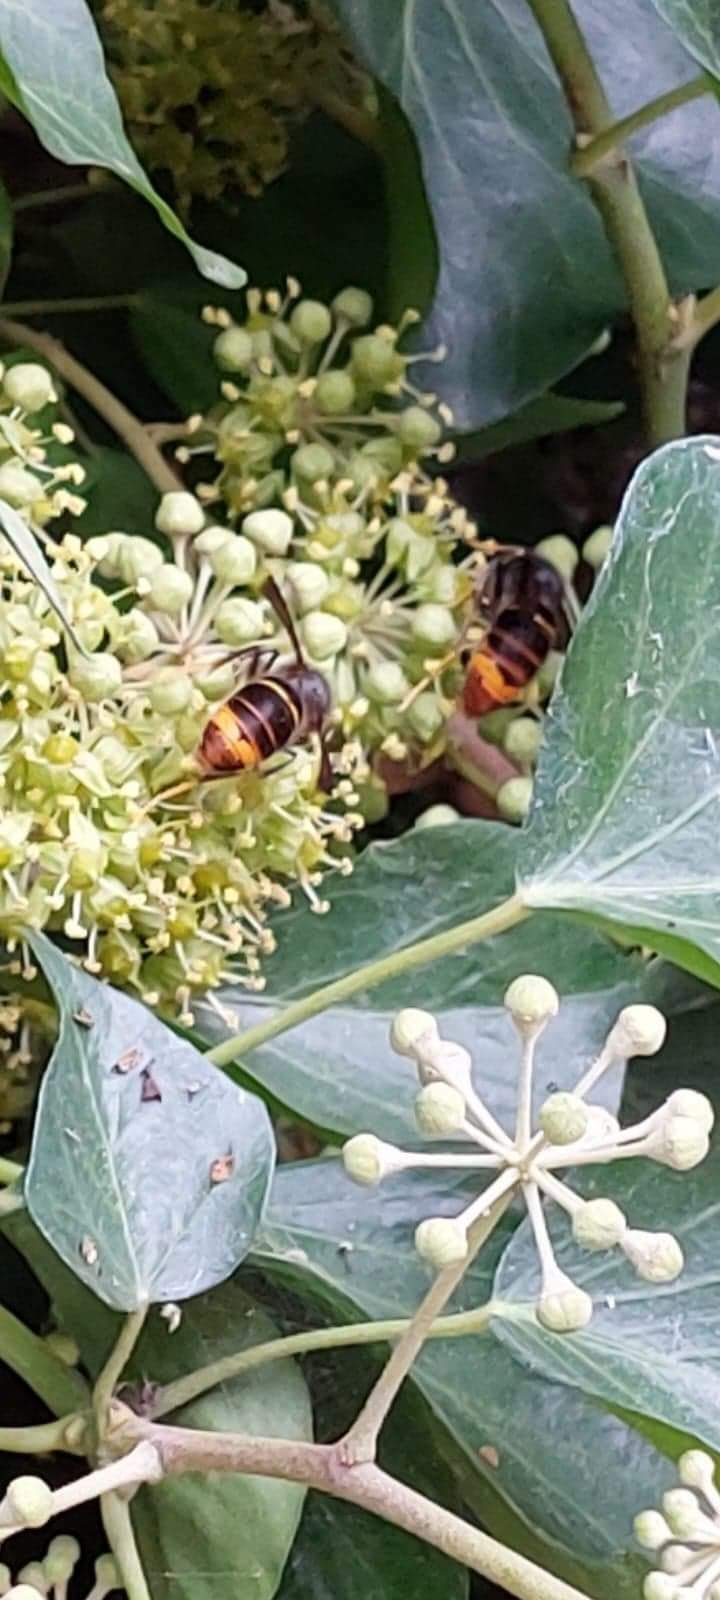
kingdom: Animalia
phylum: Arthropoda
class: Insecta
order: Hymenoptera
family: Vespidae
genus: Vespa
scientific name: Vespa velutina
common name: Asian hornet
